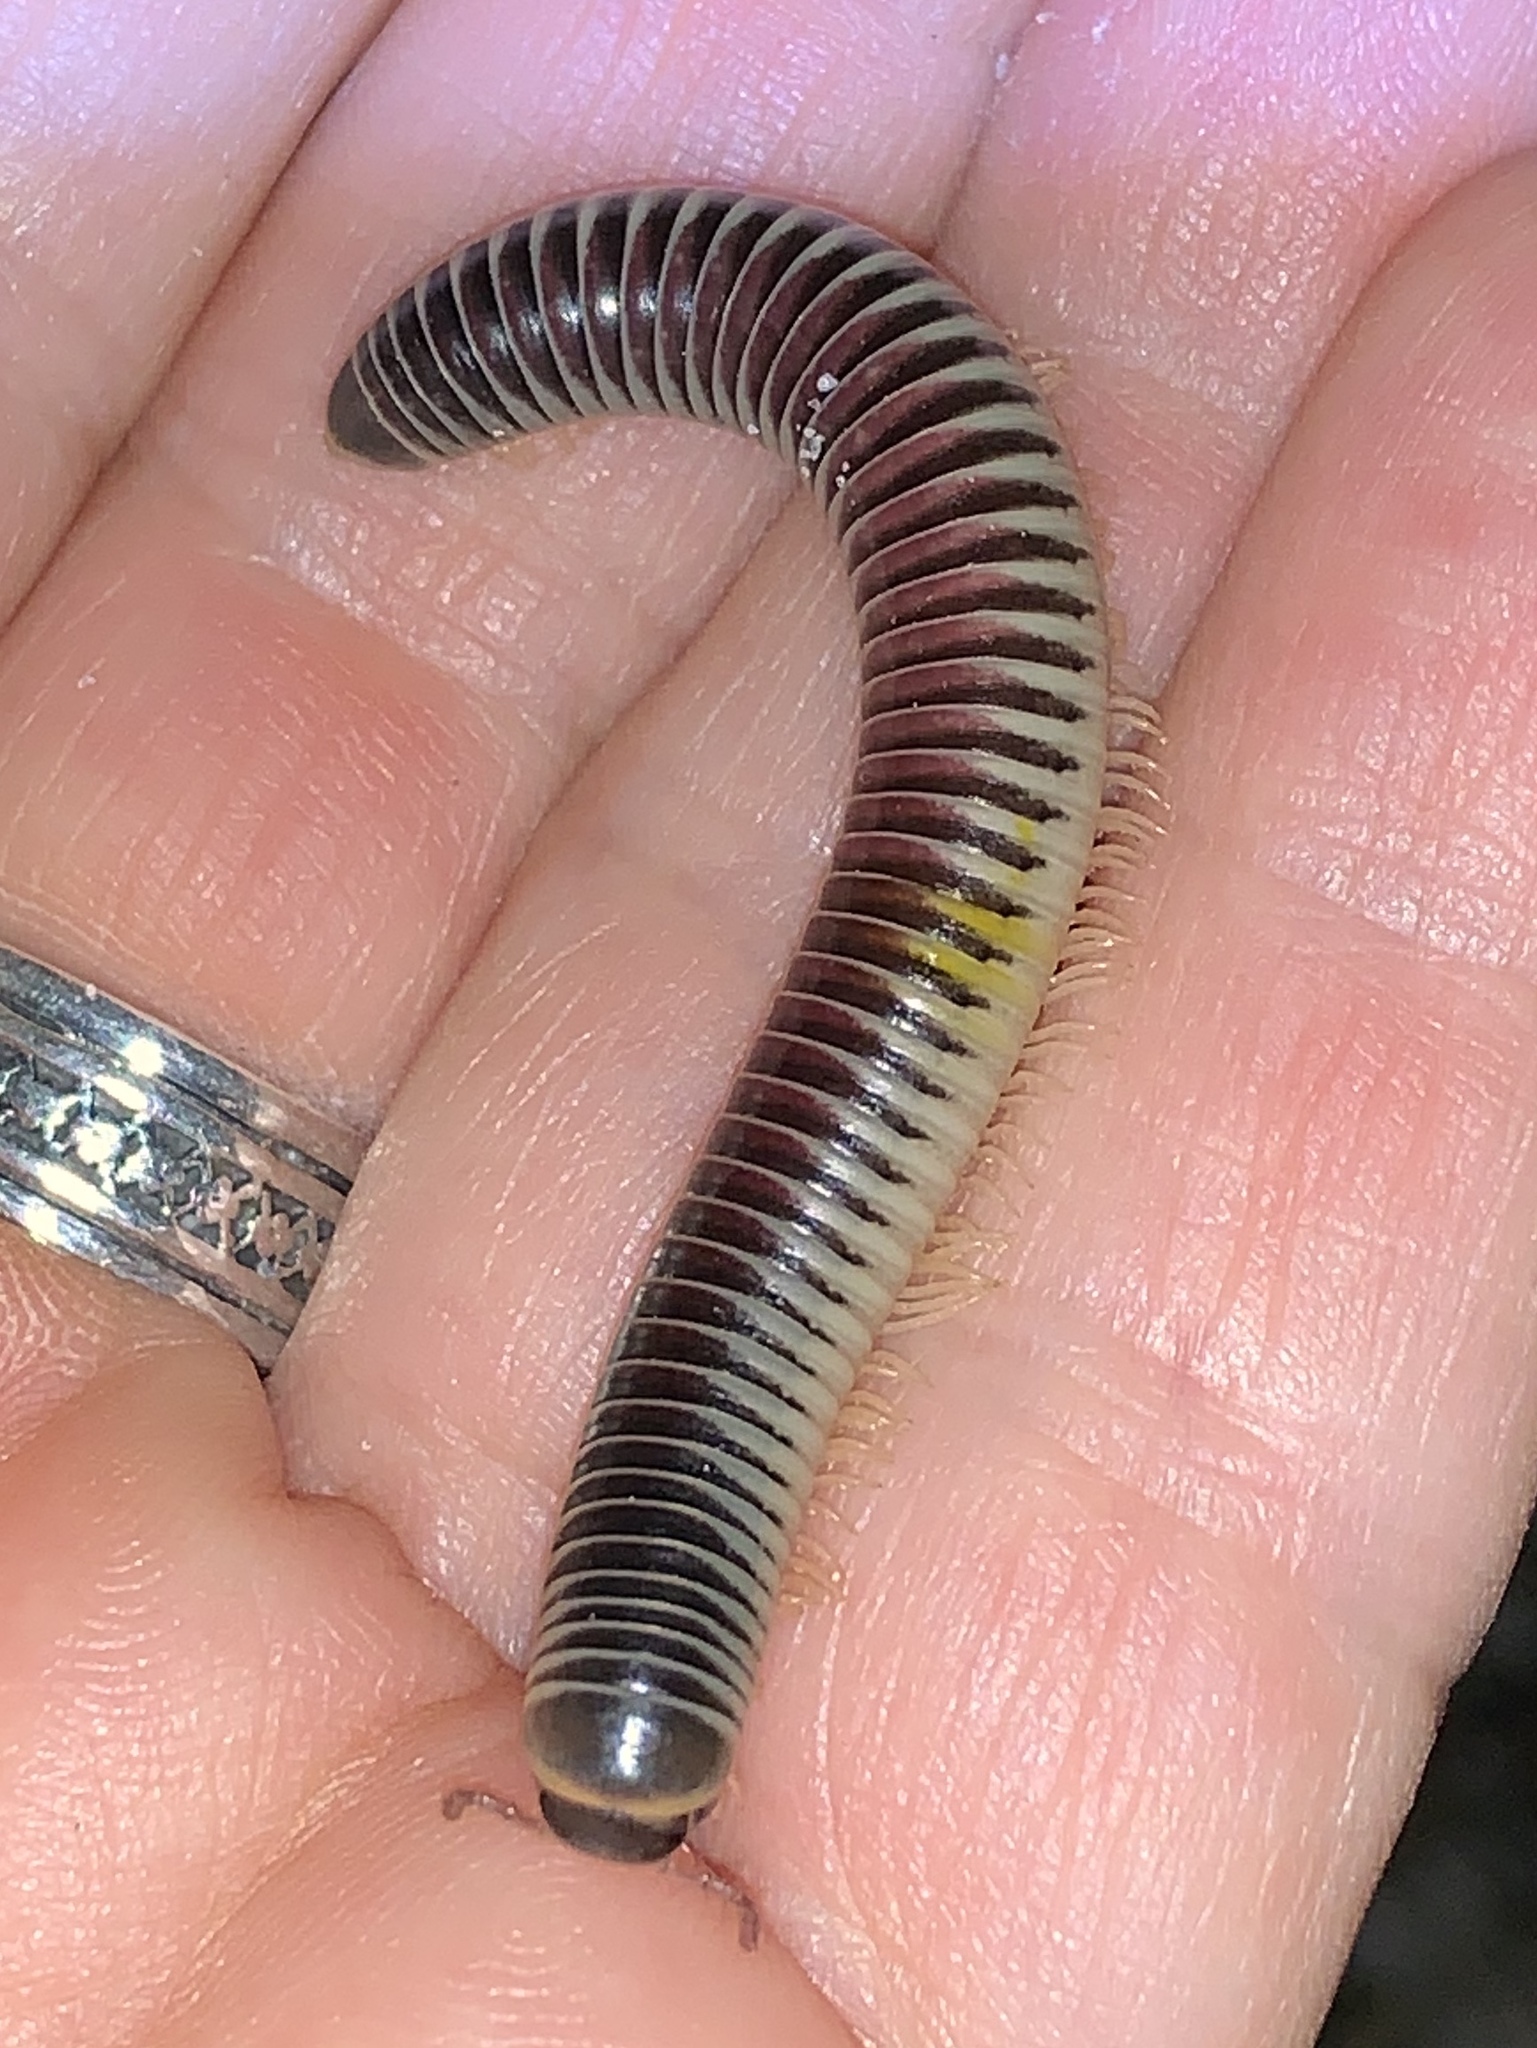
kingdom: Animalia
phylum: Arthropoda
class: Diplopoda
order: Spirobolida
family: Spirobolidae
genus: Chicobolus
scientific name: Chicobolus spinigerus
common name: Florida ivory millipede
